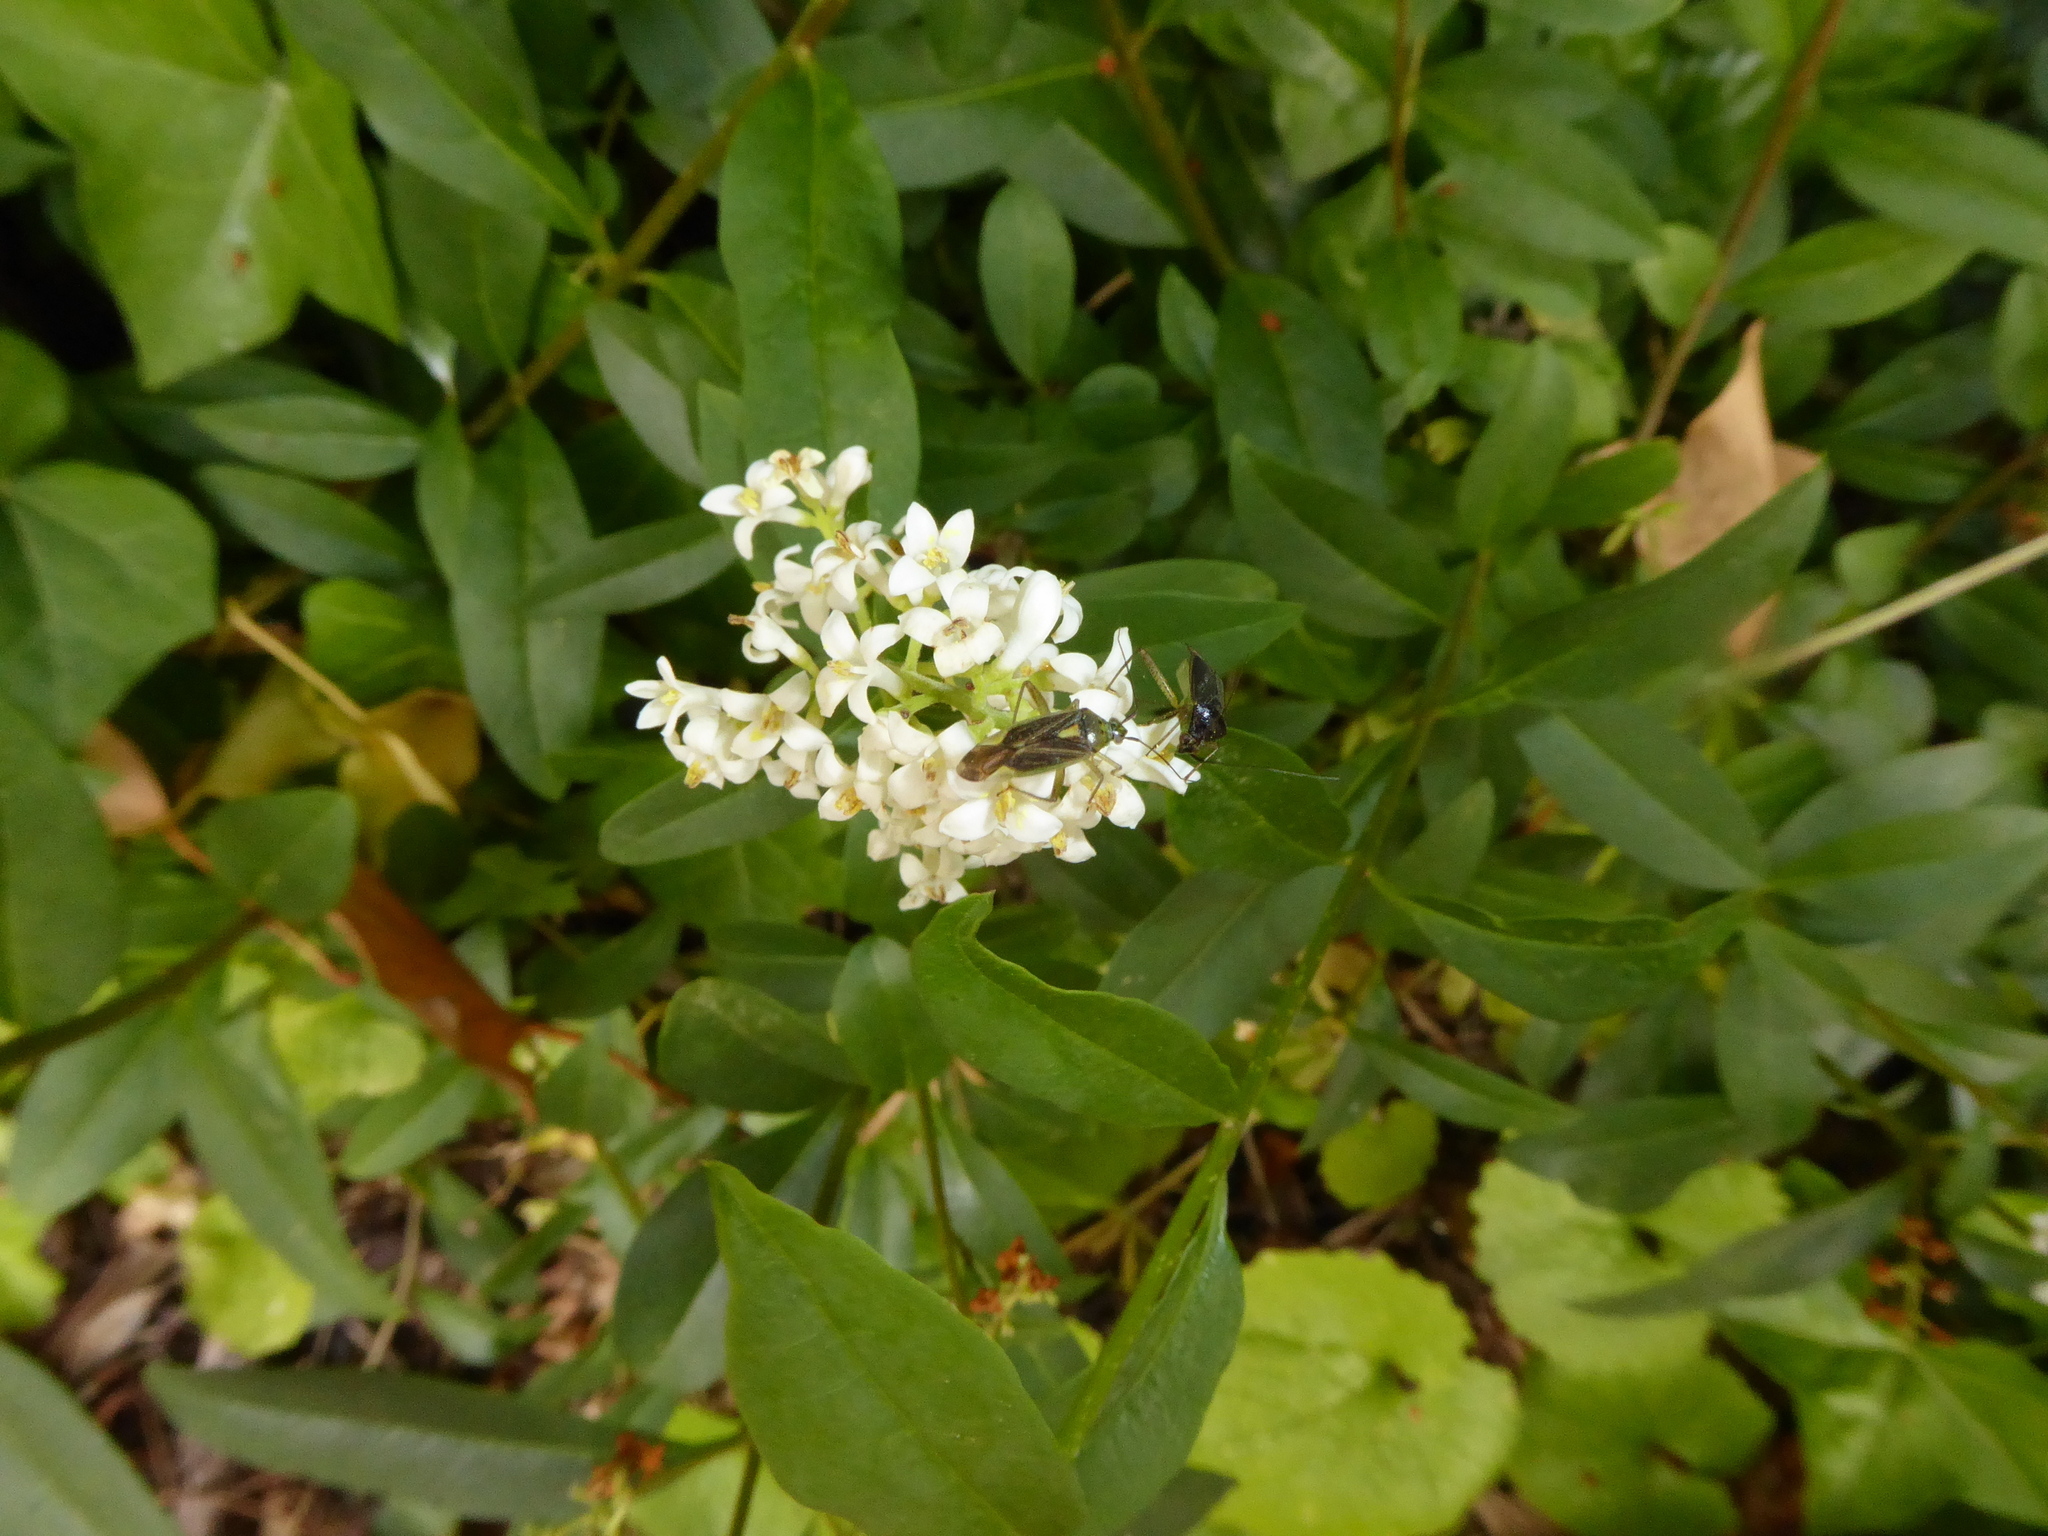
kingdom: Animalia
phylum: Arthropoda
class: Insecta
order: Hemiptera
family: Miridae
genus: Closterotomus
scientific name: Closterotomus trivialis
